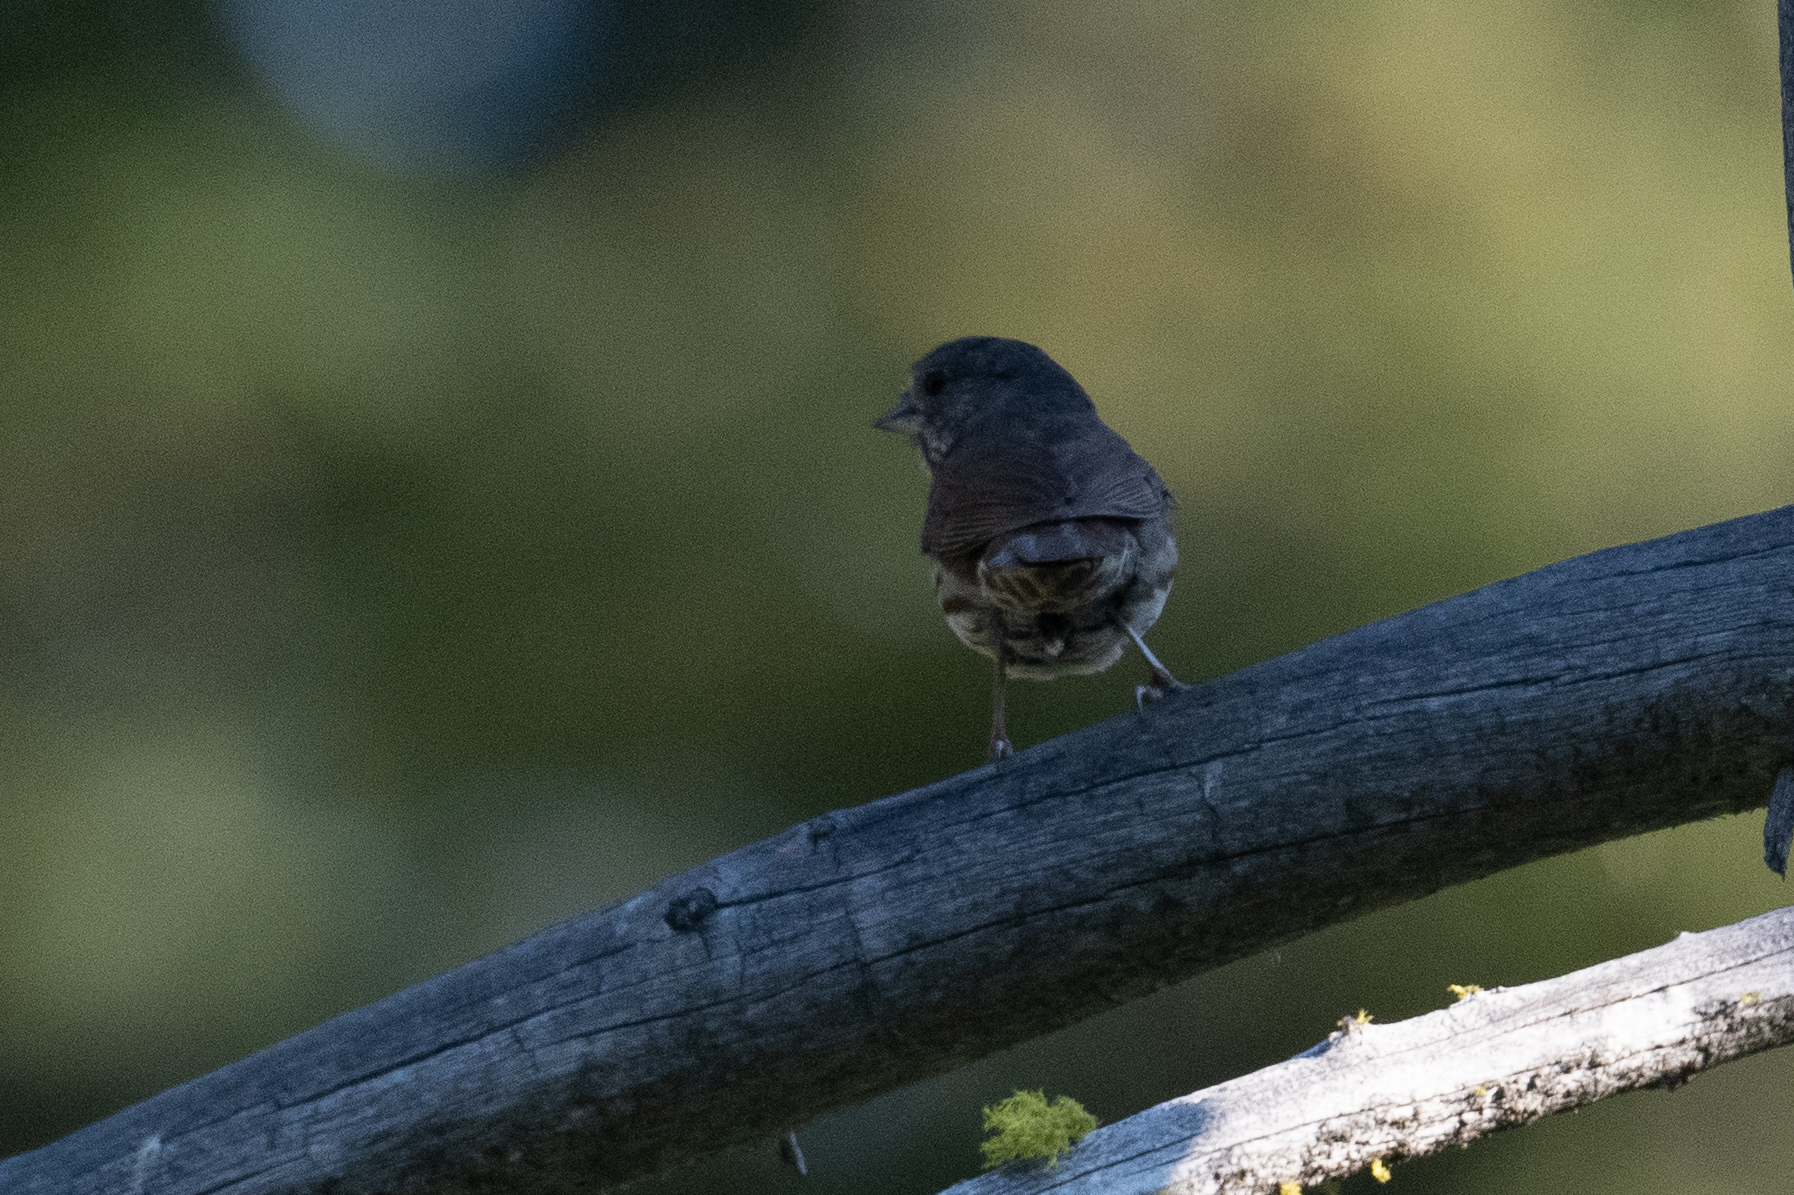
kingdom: Animalia
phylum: Chordata
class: Aves
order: Passeriformes
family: Passerellidae
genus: Passerella
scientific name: Passerella iliaca
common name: Fox sparrow
